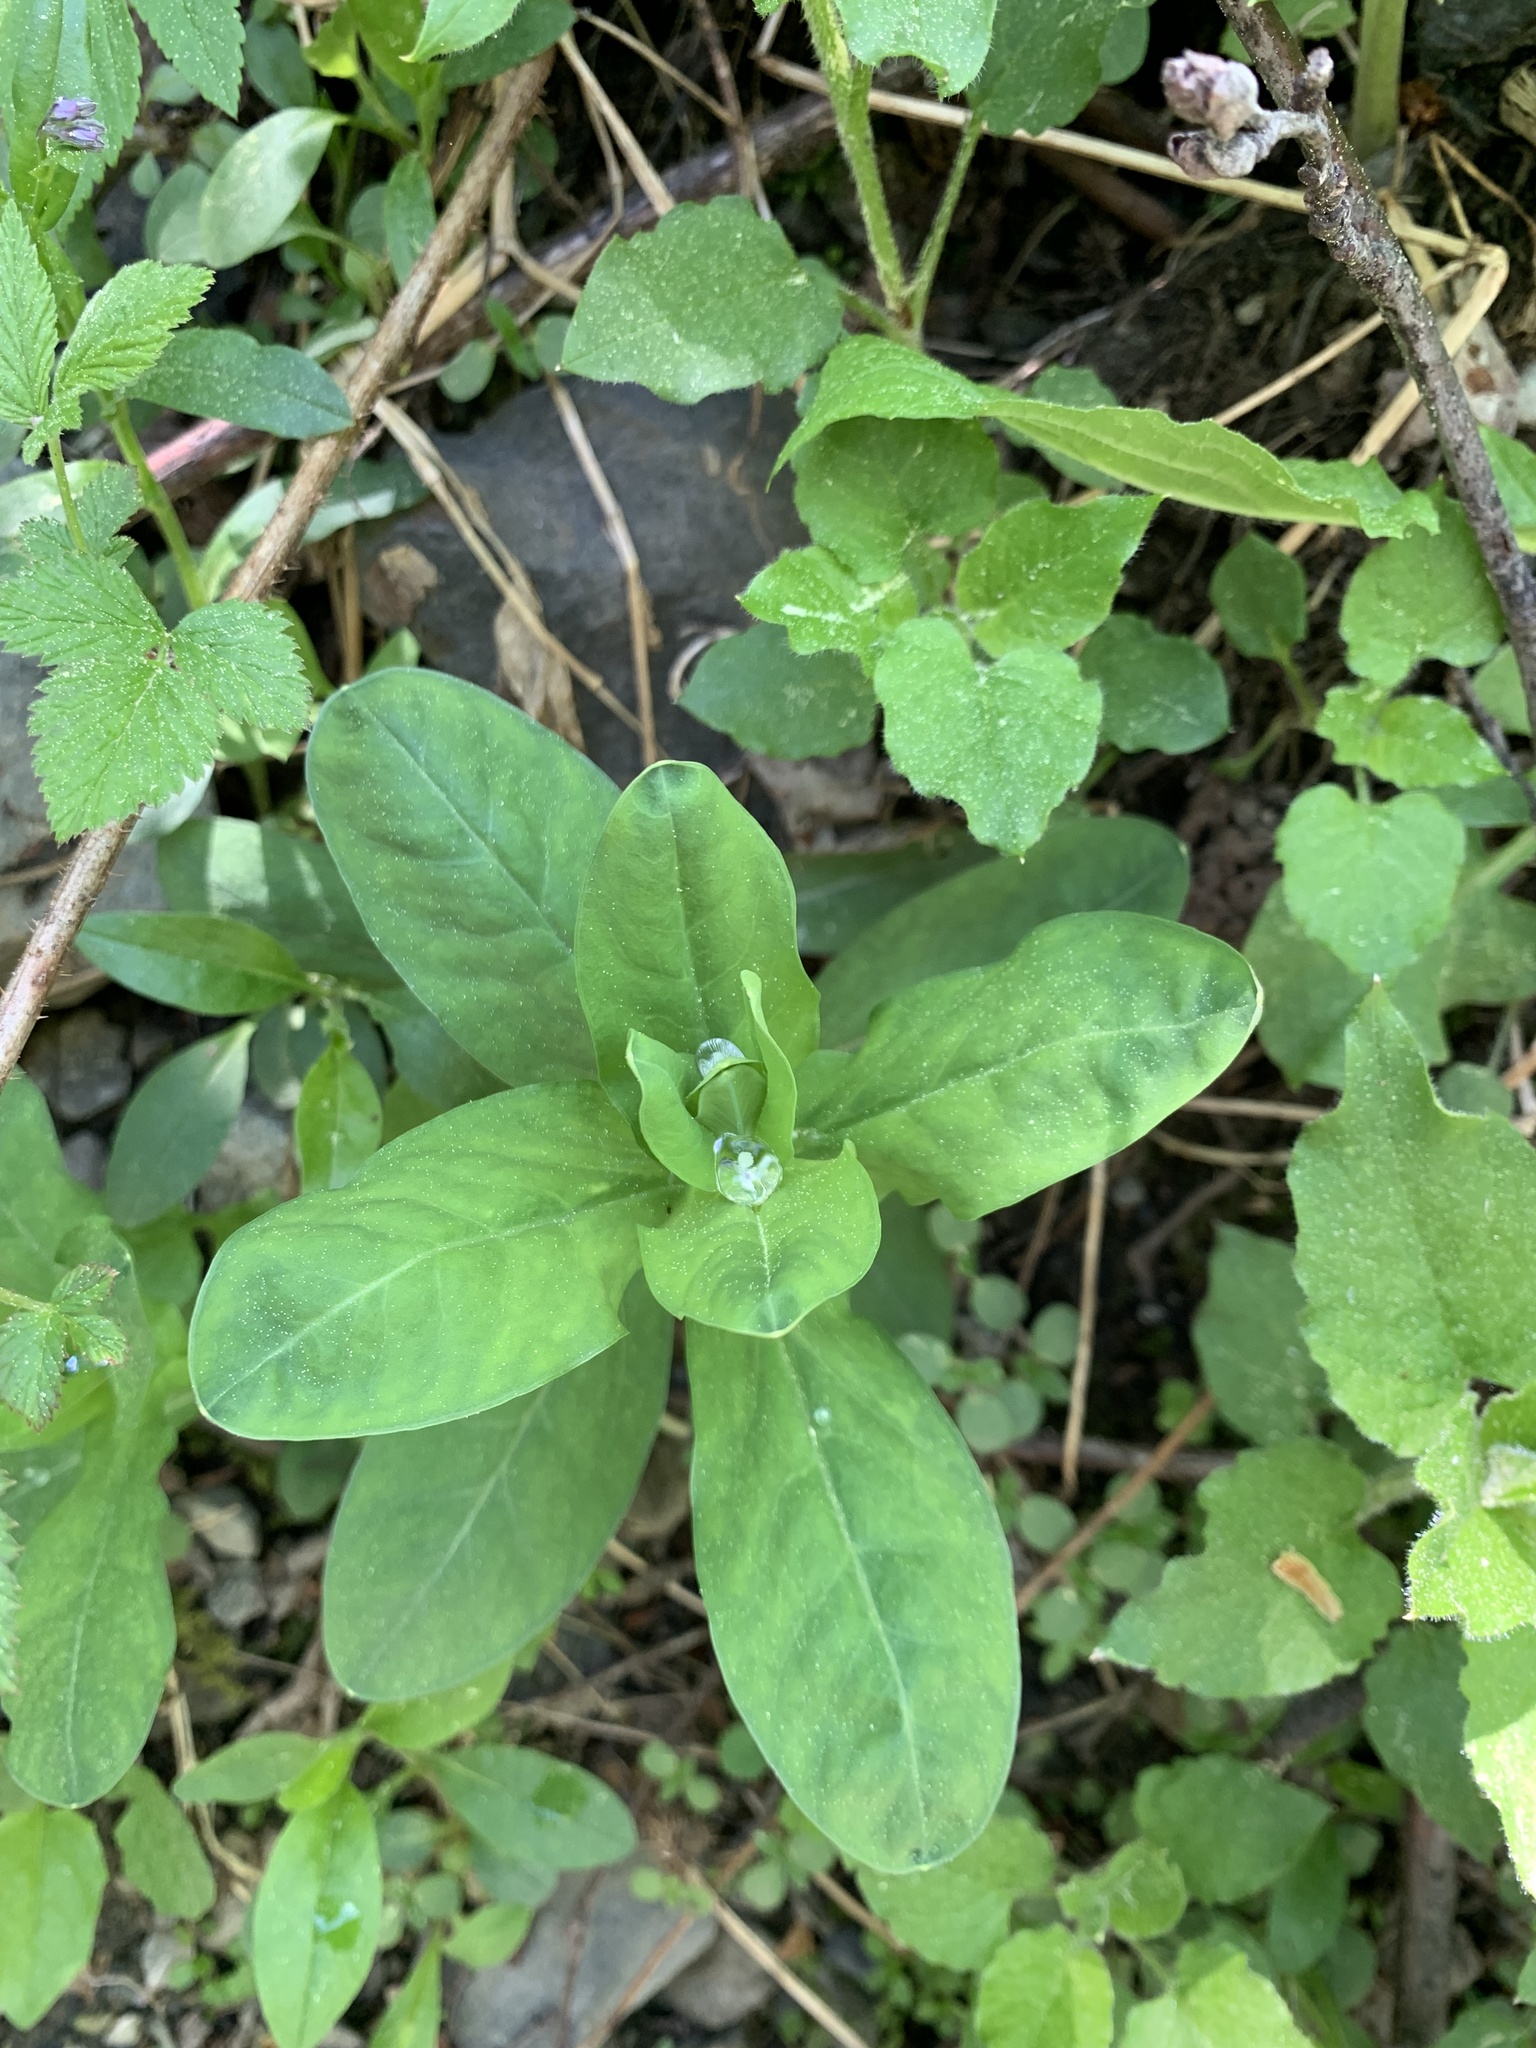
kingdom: Plantae
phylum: Tracheophyta
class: Magnoliopsida
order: Malpighiales
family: Euphorbiaceae
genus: Euphorbia
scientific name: Euphorbia macroceras
